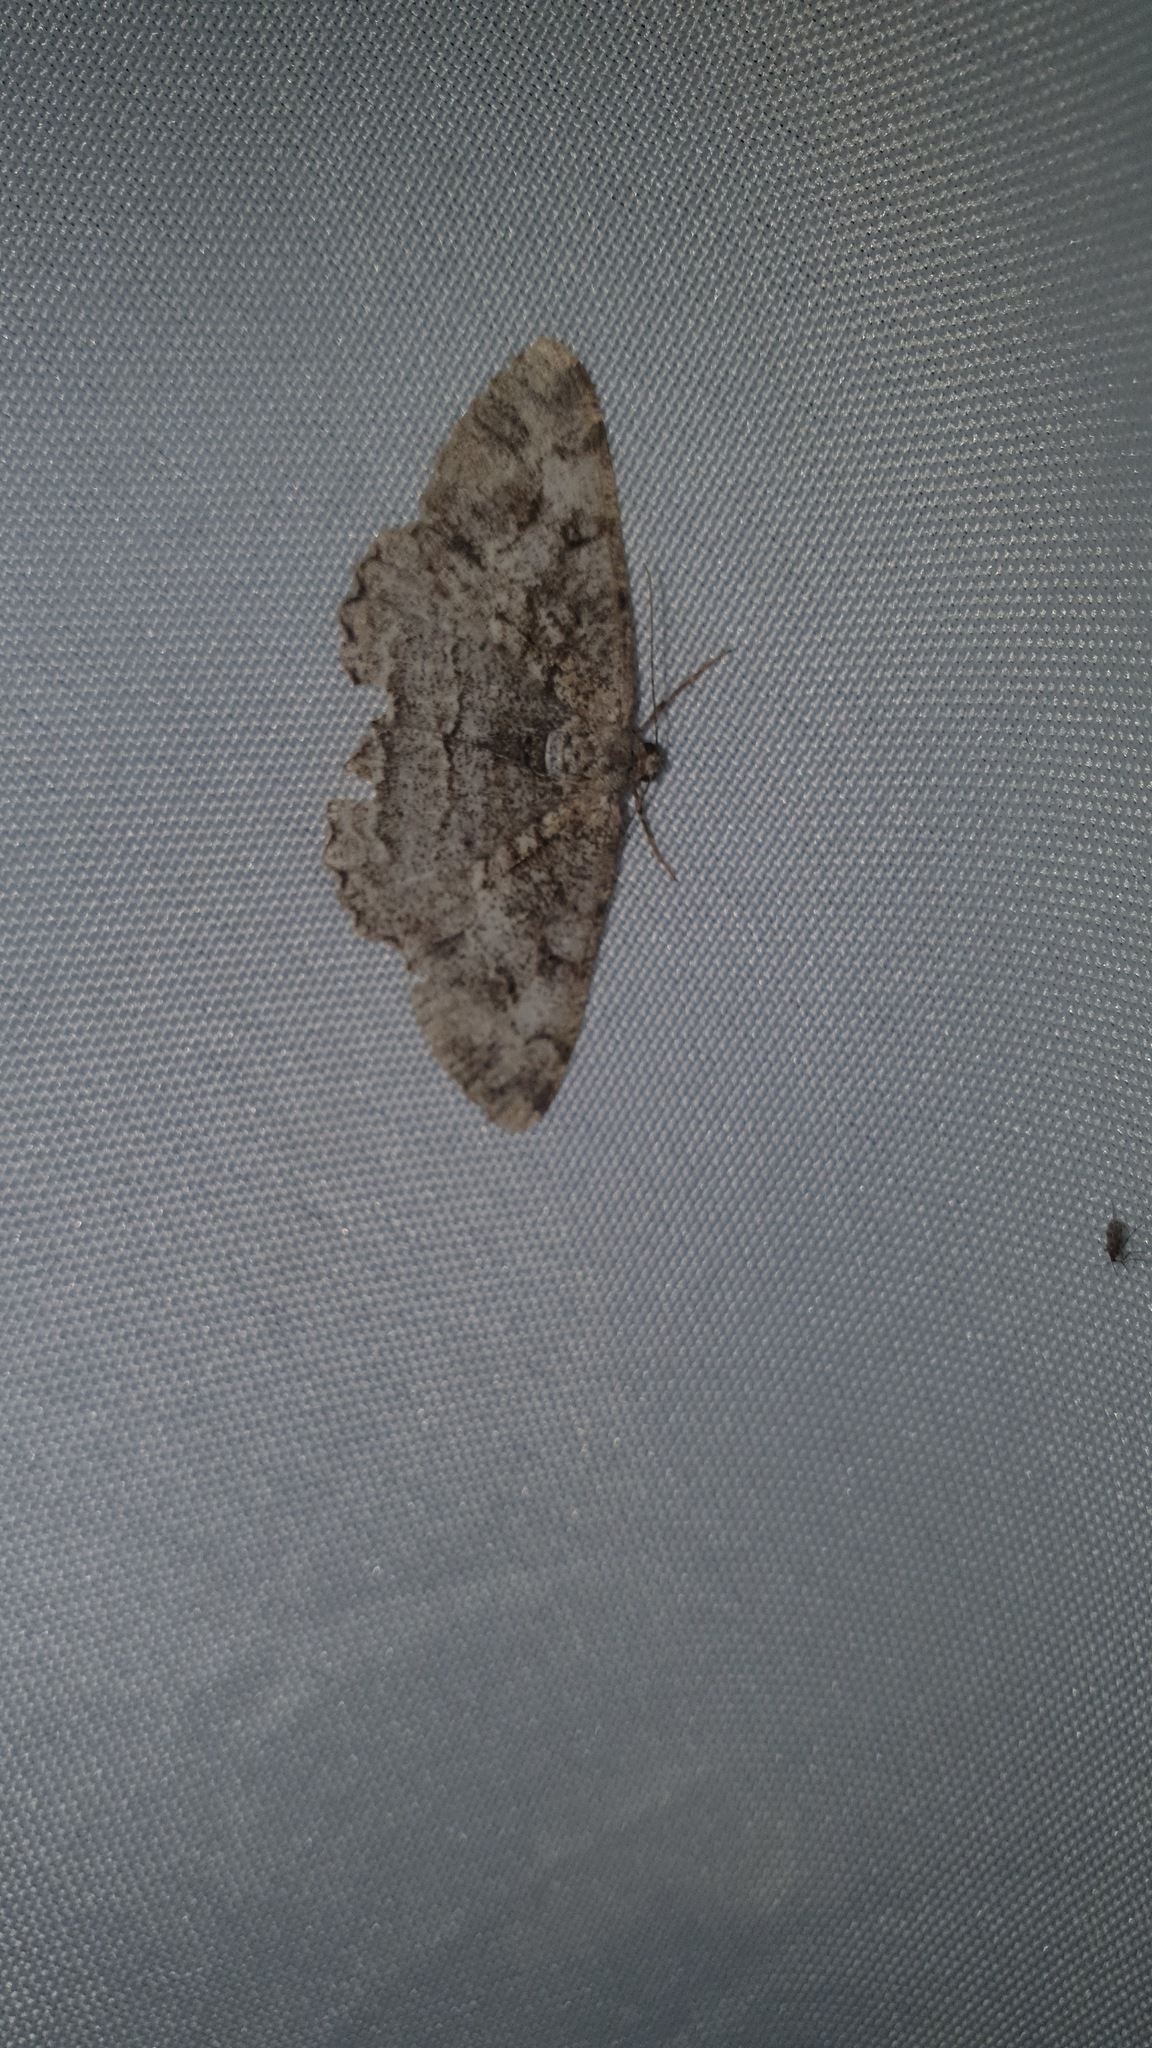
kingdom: Animalia
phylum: Arthropoda
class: Insecta
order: Lepidoptera
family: Geometridae
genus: Alcis
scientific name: Alcis repandata
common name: Mottled beauty
